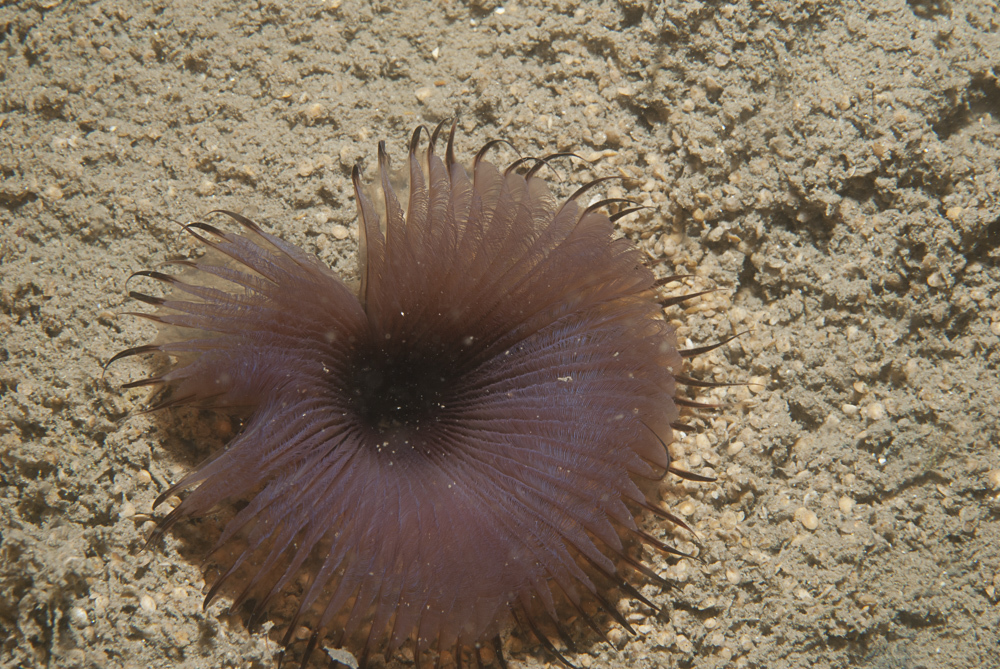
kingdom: Animalia
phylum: Annelida
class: Polychaeta
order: Sabellida
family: Sabellidae
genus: Myxicola
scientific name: Myxicola infundibulum
